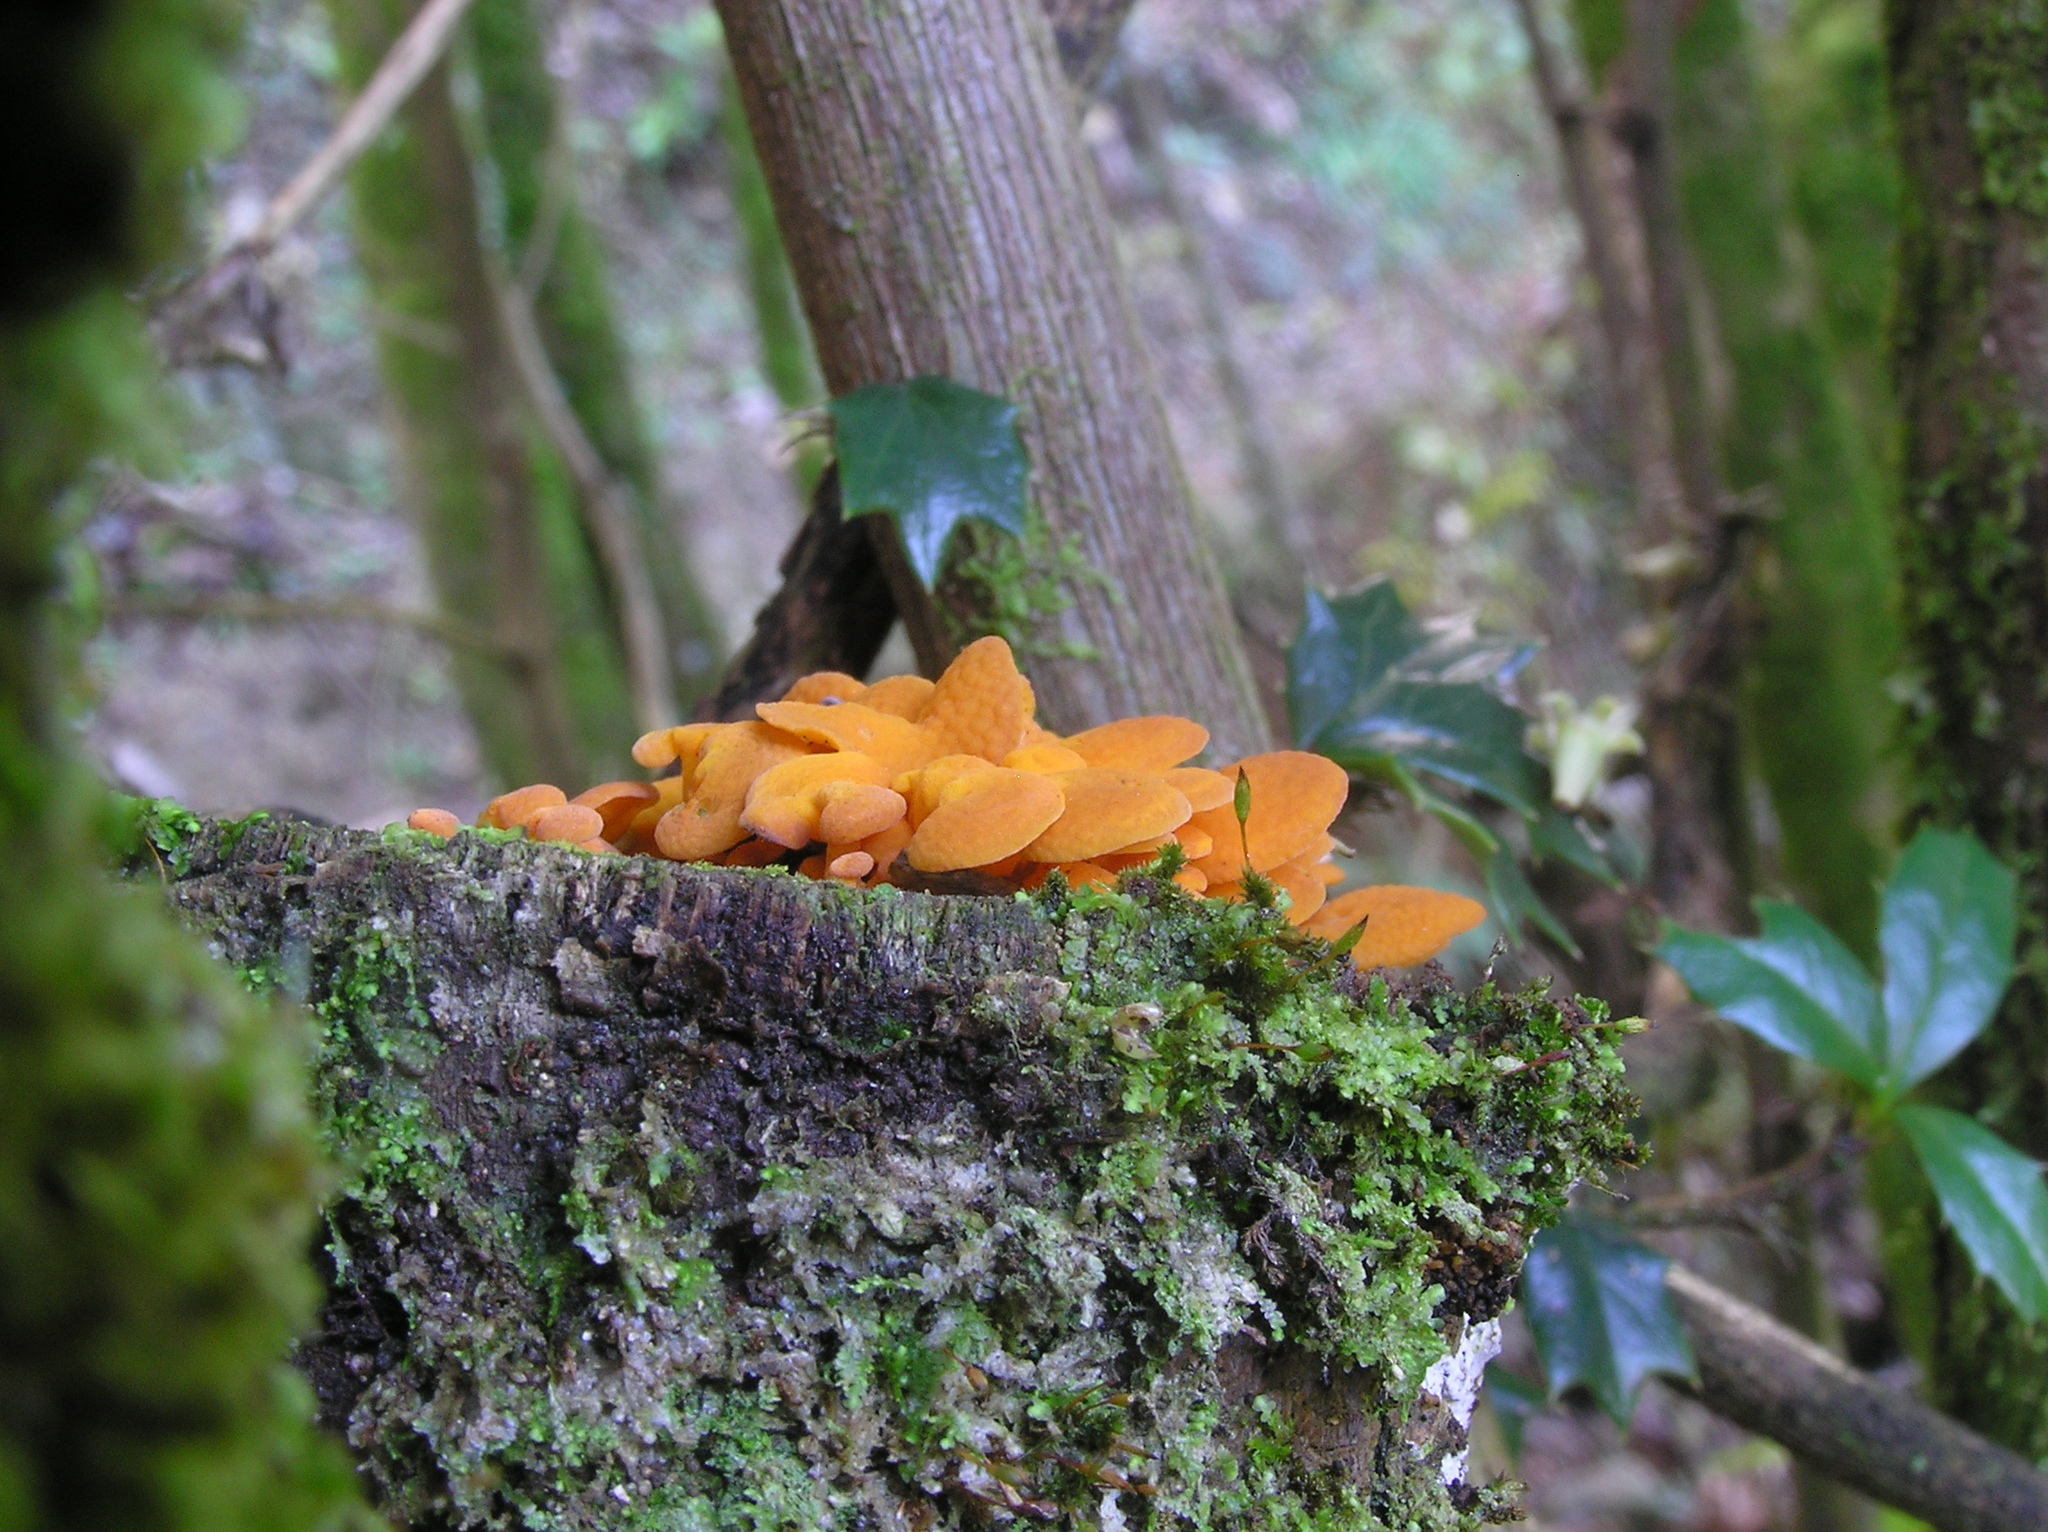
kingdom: Fungi
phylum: Basidiomycota
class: Agaricomycetes
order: Agaricales
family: Mycenaceae
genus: Favolaschia
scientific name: Favolaschia claudopus
